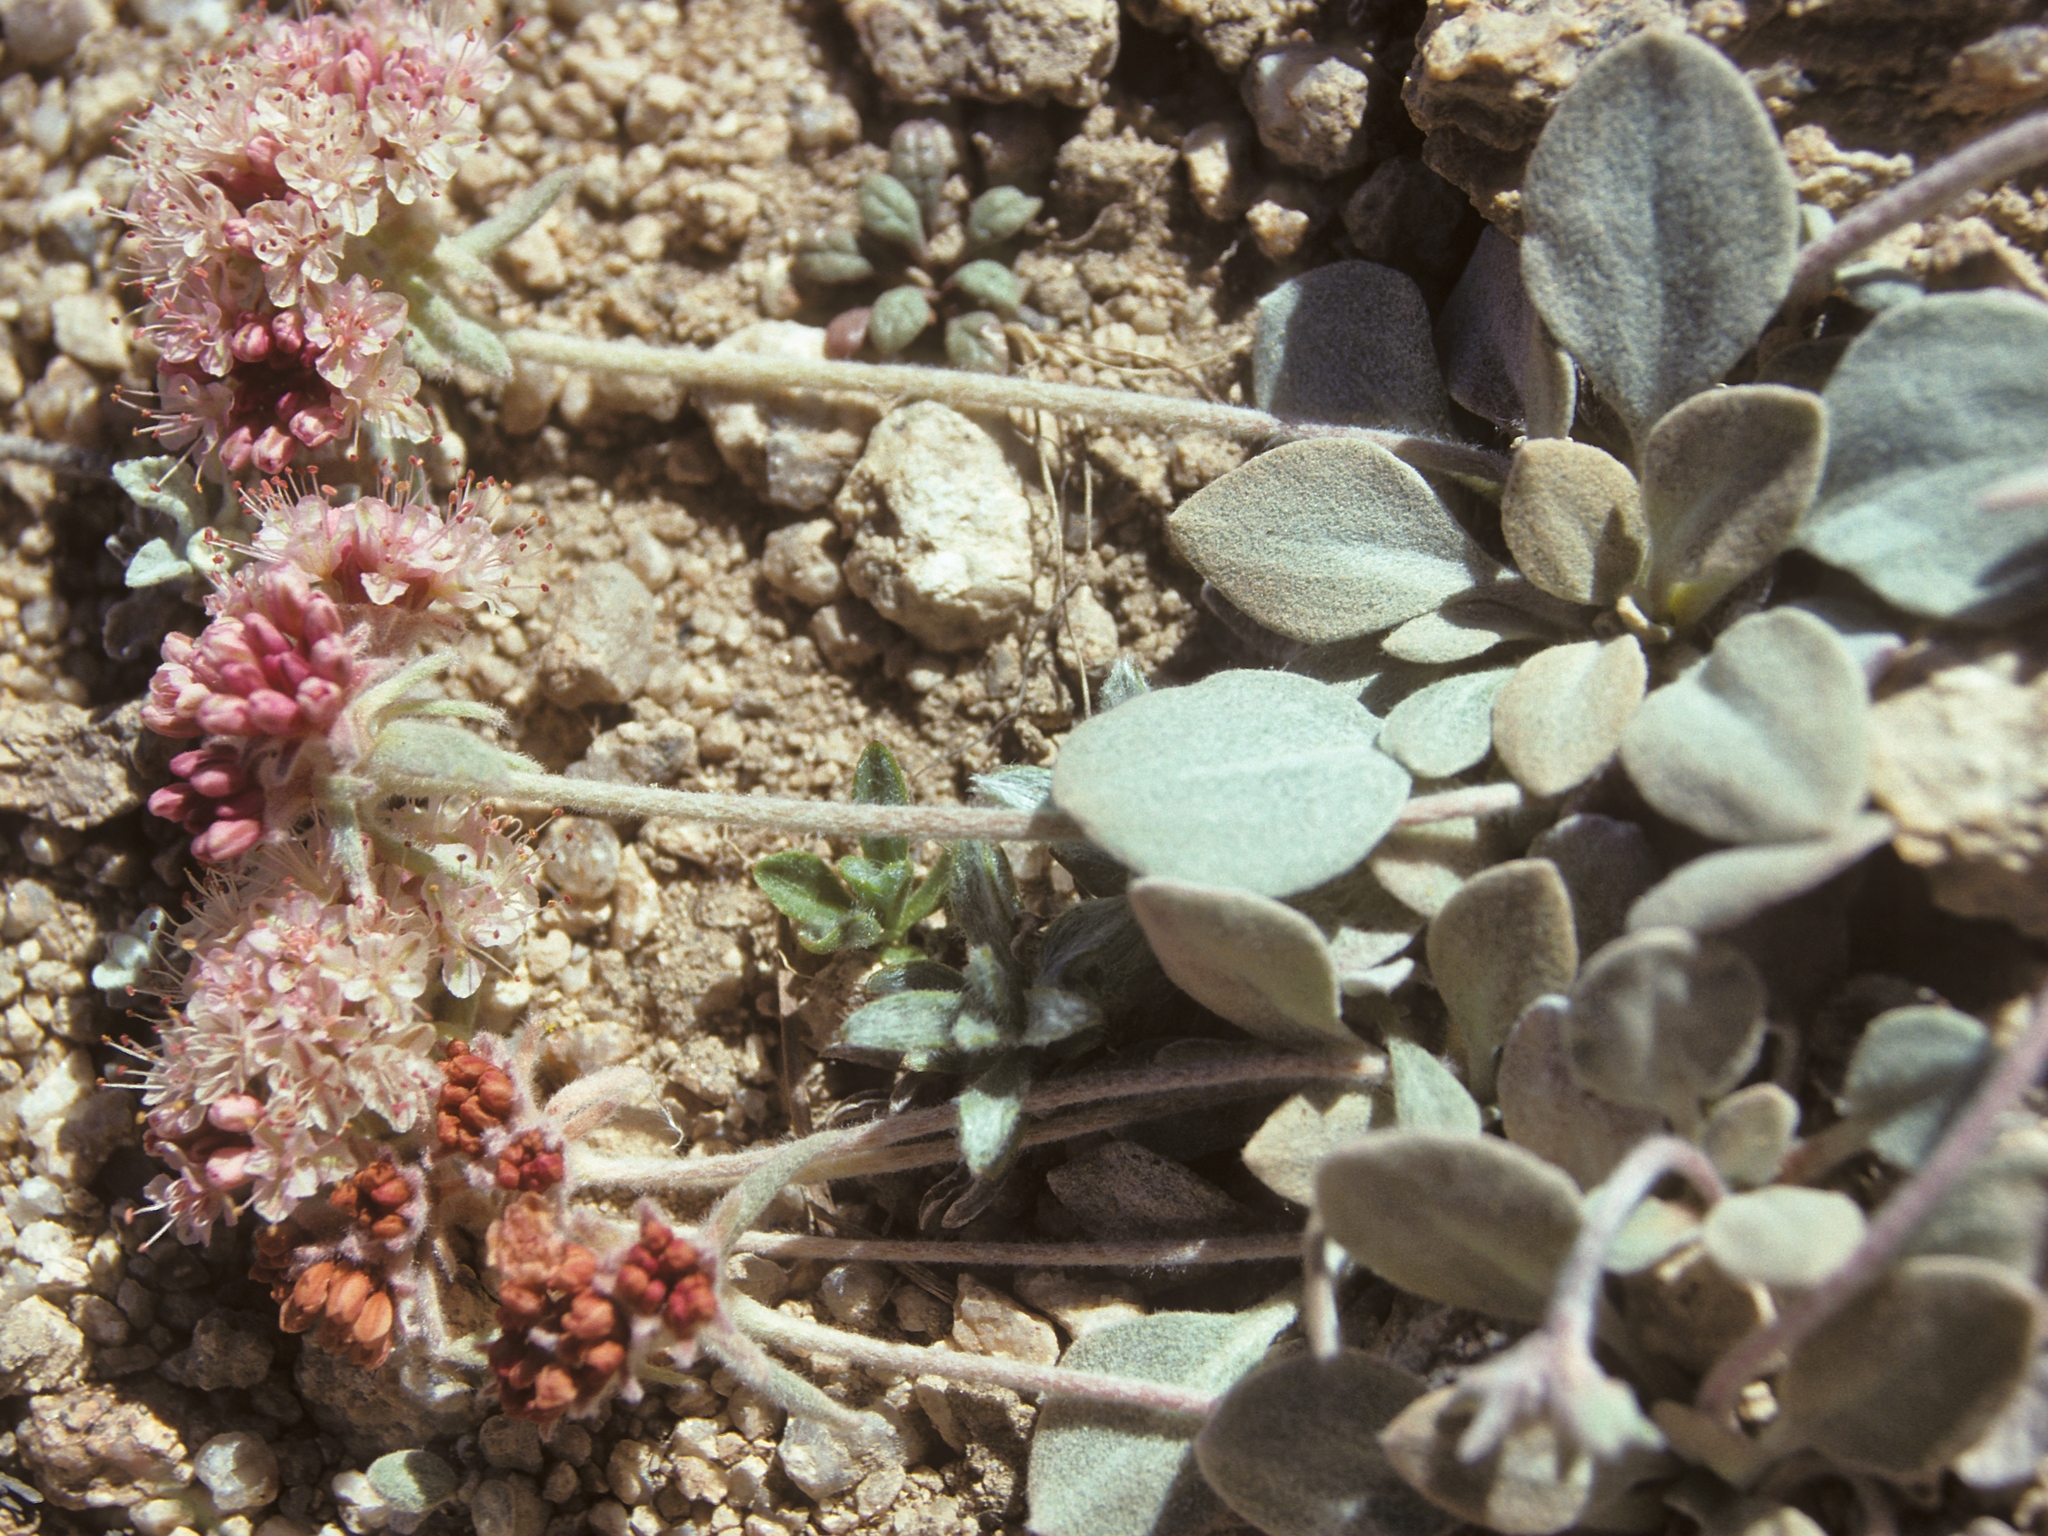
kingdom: Plantae
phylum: Tracheophyta
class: Magnoliopsida
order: Caryophyllales
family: Polygonaceae
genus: Eriogonum
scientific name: Eriogonum lobbii
